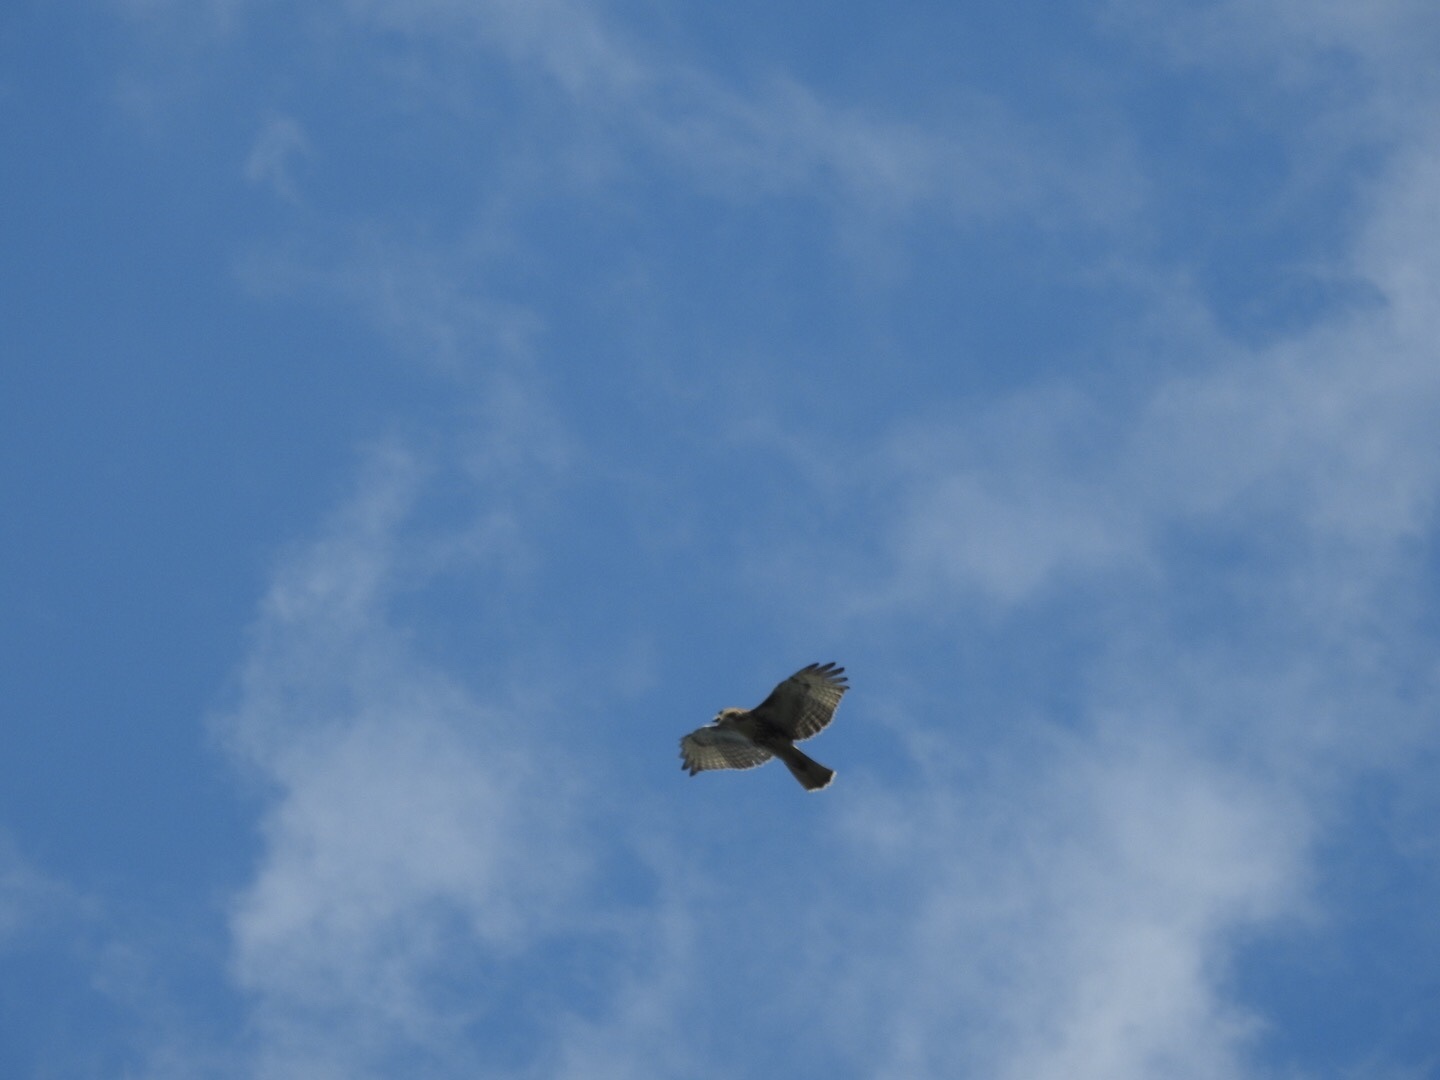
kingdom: Animalia
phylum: Chordata
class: Aves
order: Accipitriformes
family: Accipitridae
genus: Buteo
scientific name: Buteo jamaicensis
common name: Red-tailed hawk
